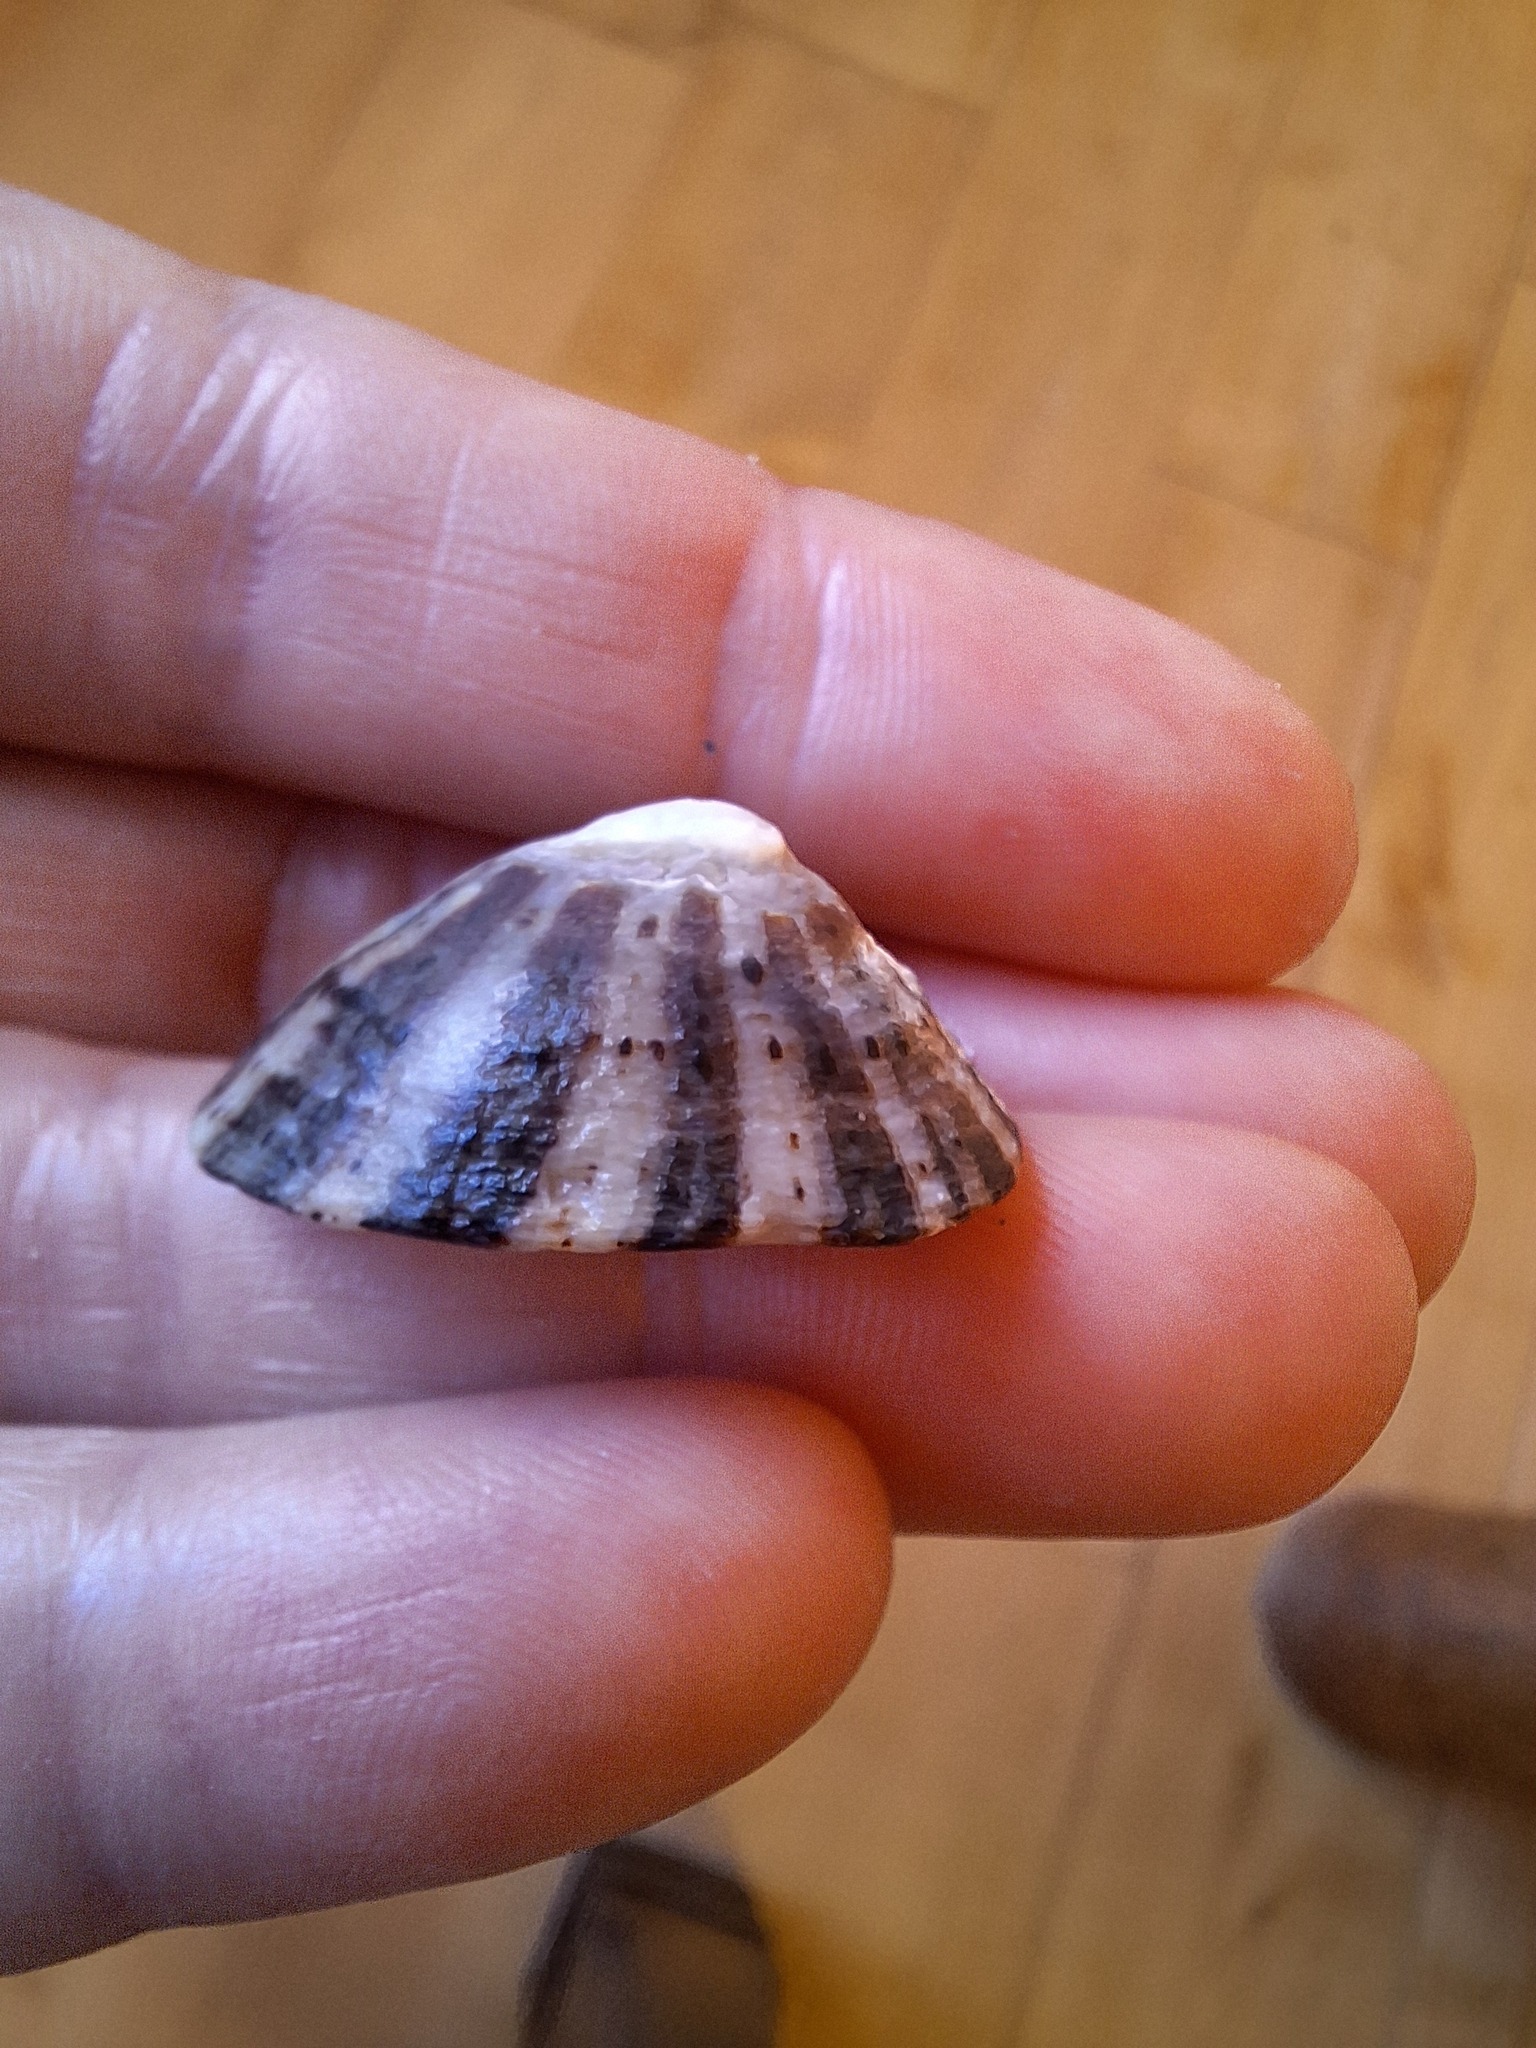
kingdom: Animalia
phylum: Mollusca
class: Gastropoda
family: Patellidae
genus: Patella
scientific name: Patella rustica
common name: Lusitanian limpet
